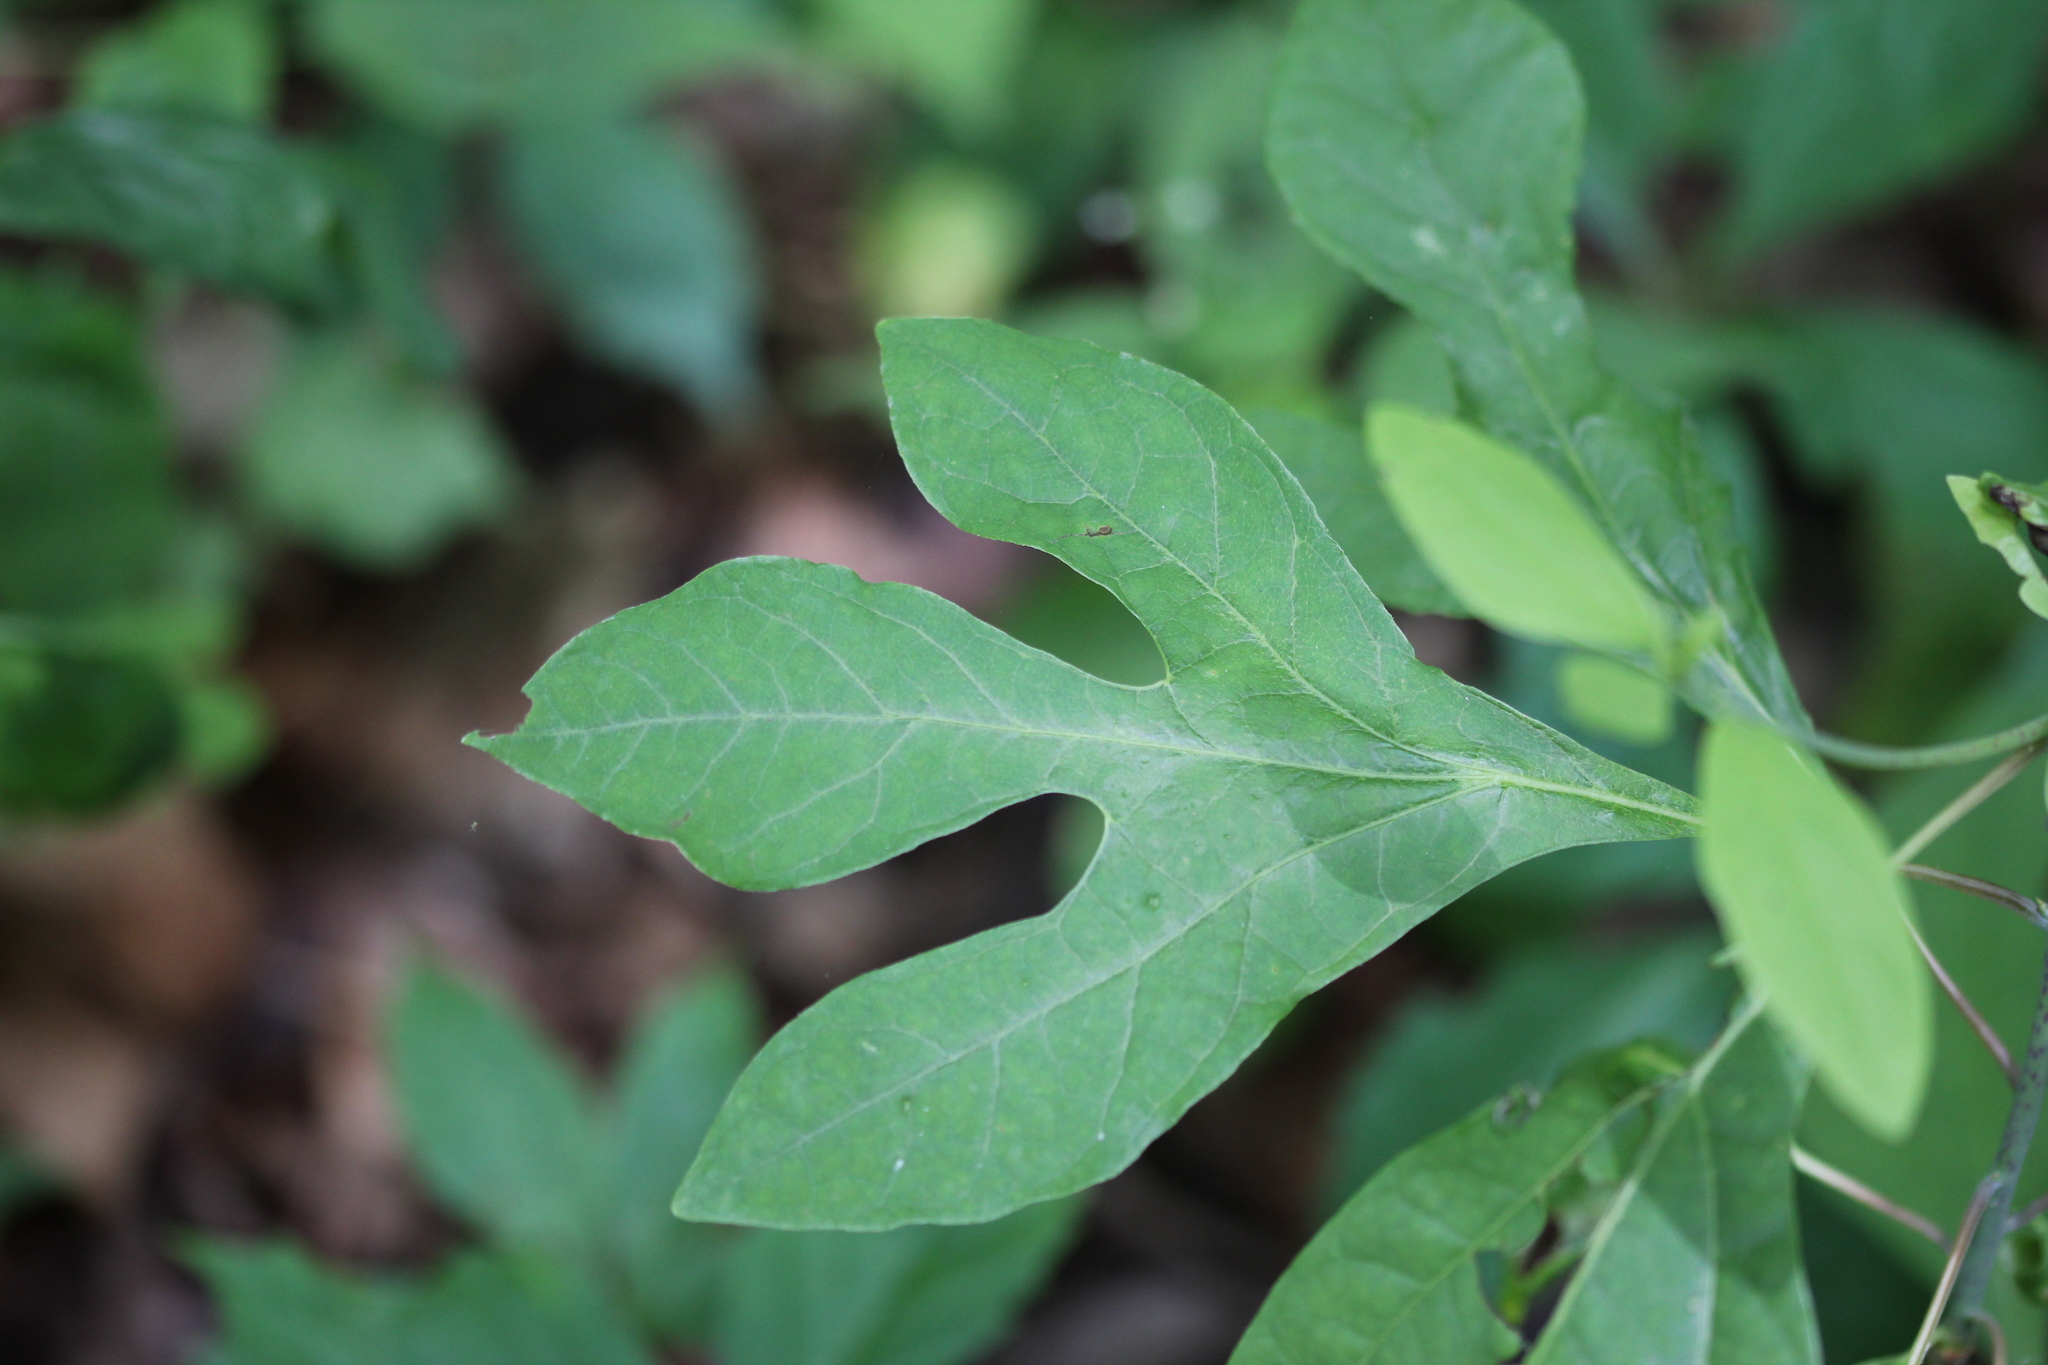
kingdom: Plantae
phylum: Tracheophyta
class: Magnoliopsida
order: Laurales
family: Lauraceae
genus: Sassafras
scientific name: Sassafras albidum
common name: Sassafras
